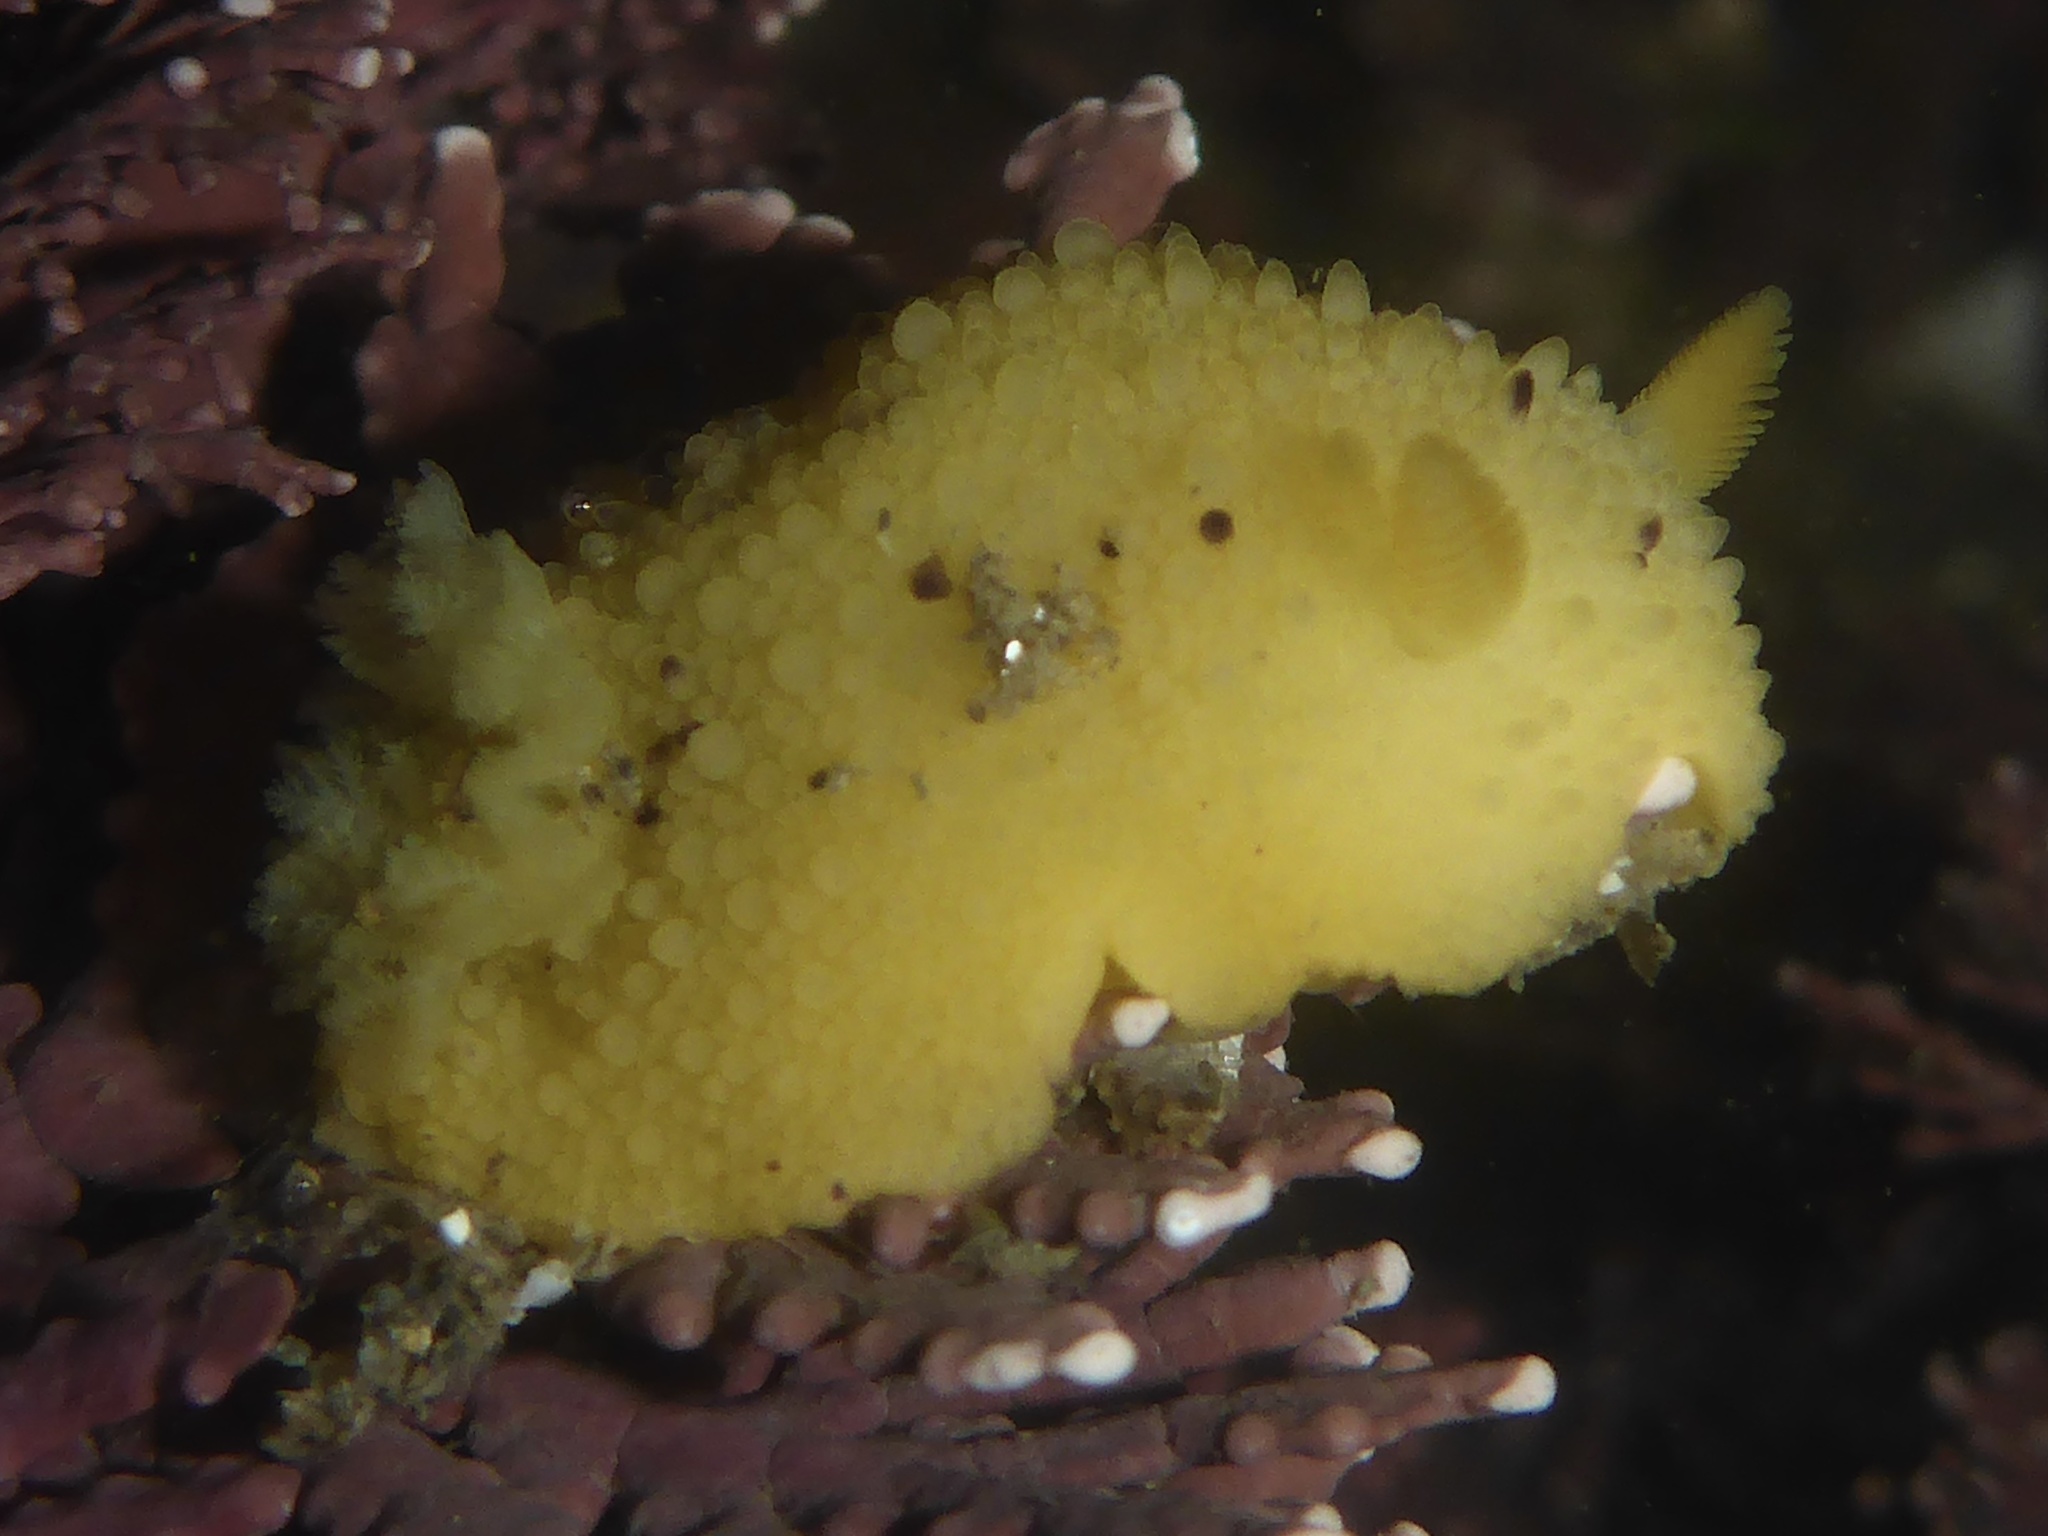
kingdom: Animalia
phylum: Mollusca
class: Gastropoda
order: Nudibranchia
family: Dorididae
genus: Doris
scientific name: Doris montereyensis
